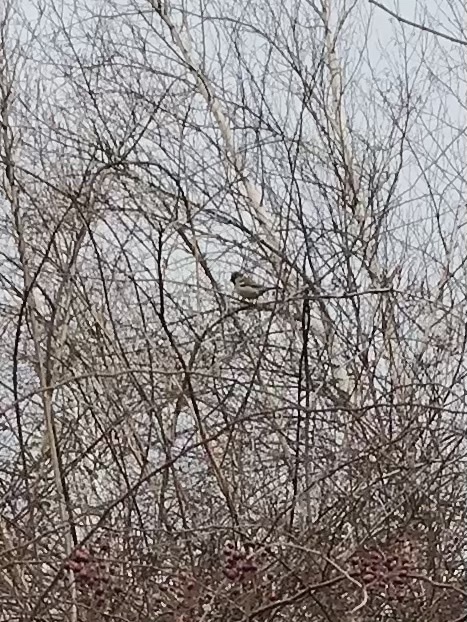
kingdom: Animalia
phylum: Chordata
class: Aves
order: Passeriformes
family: Passeridae
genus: Passer
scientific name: Passer domesticus
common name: House sparrow
